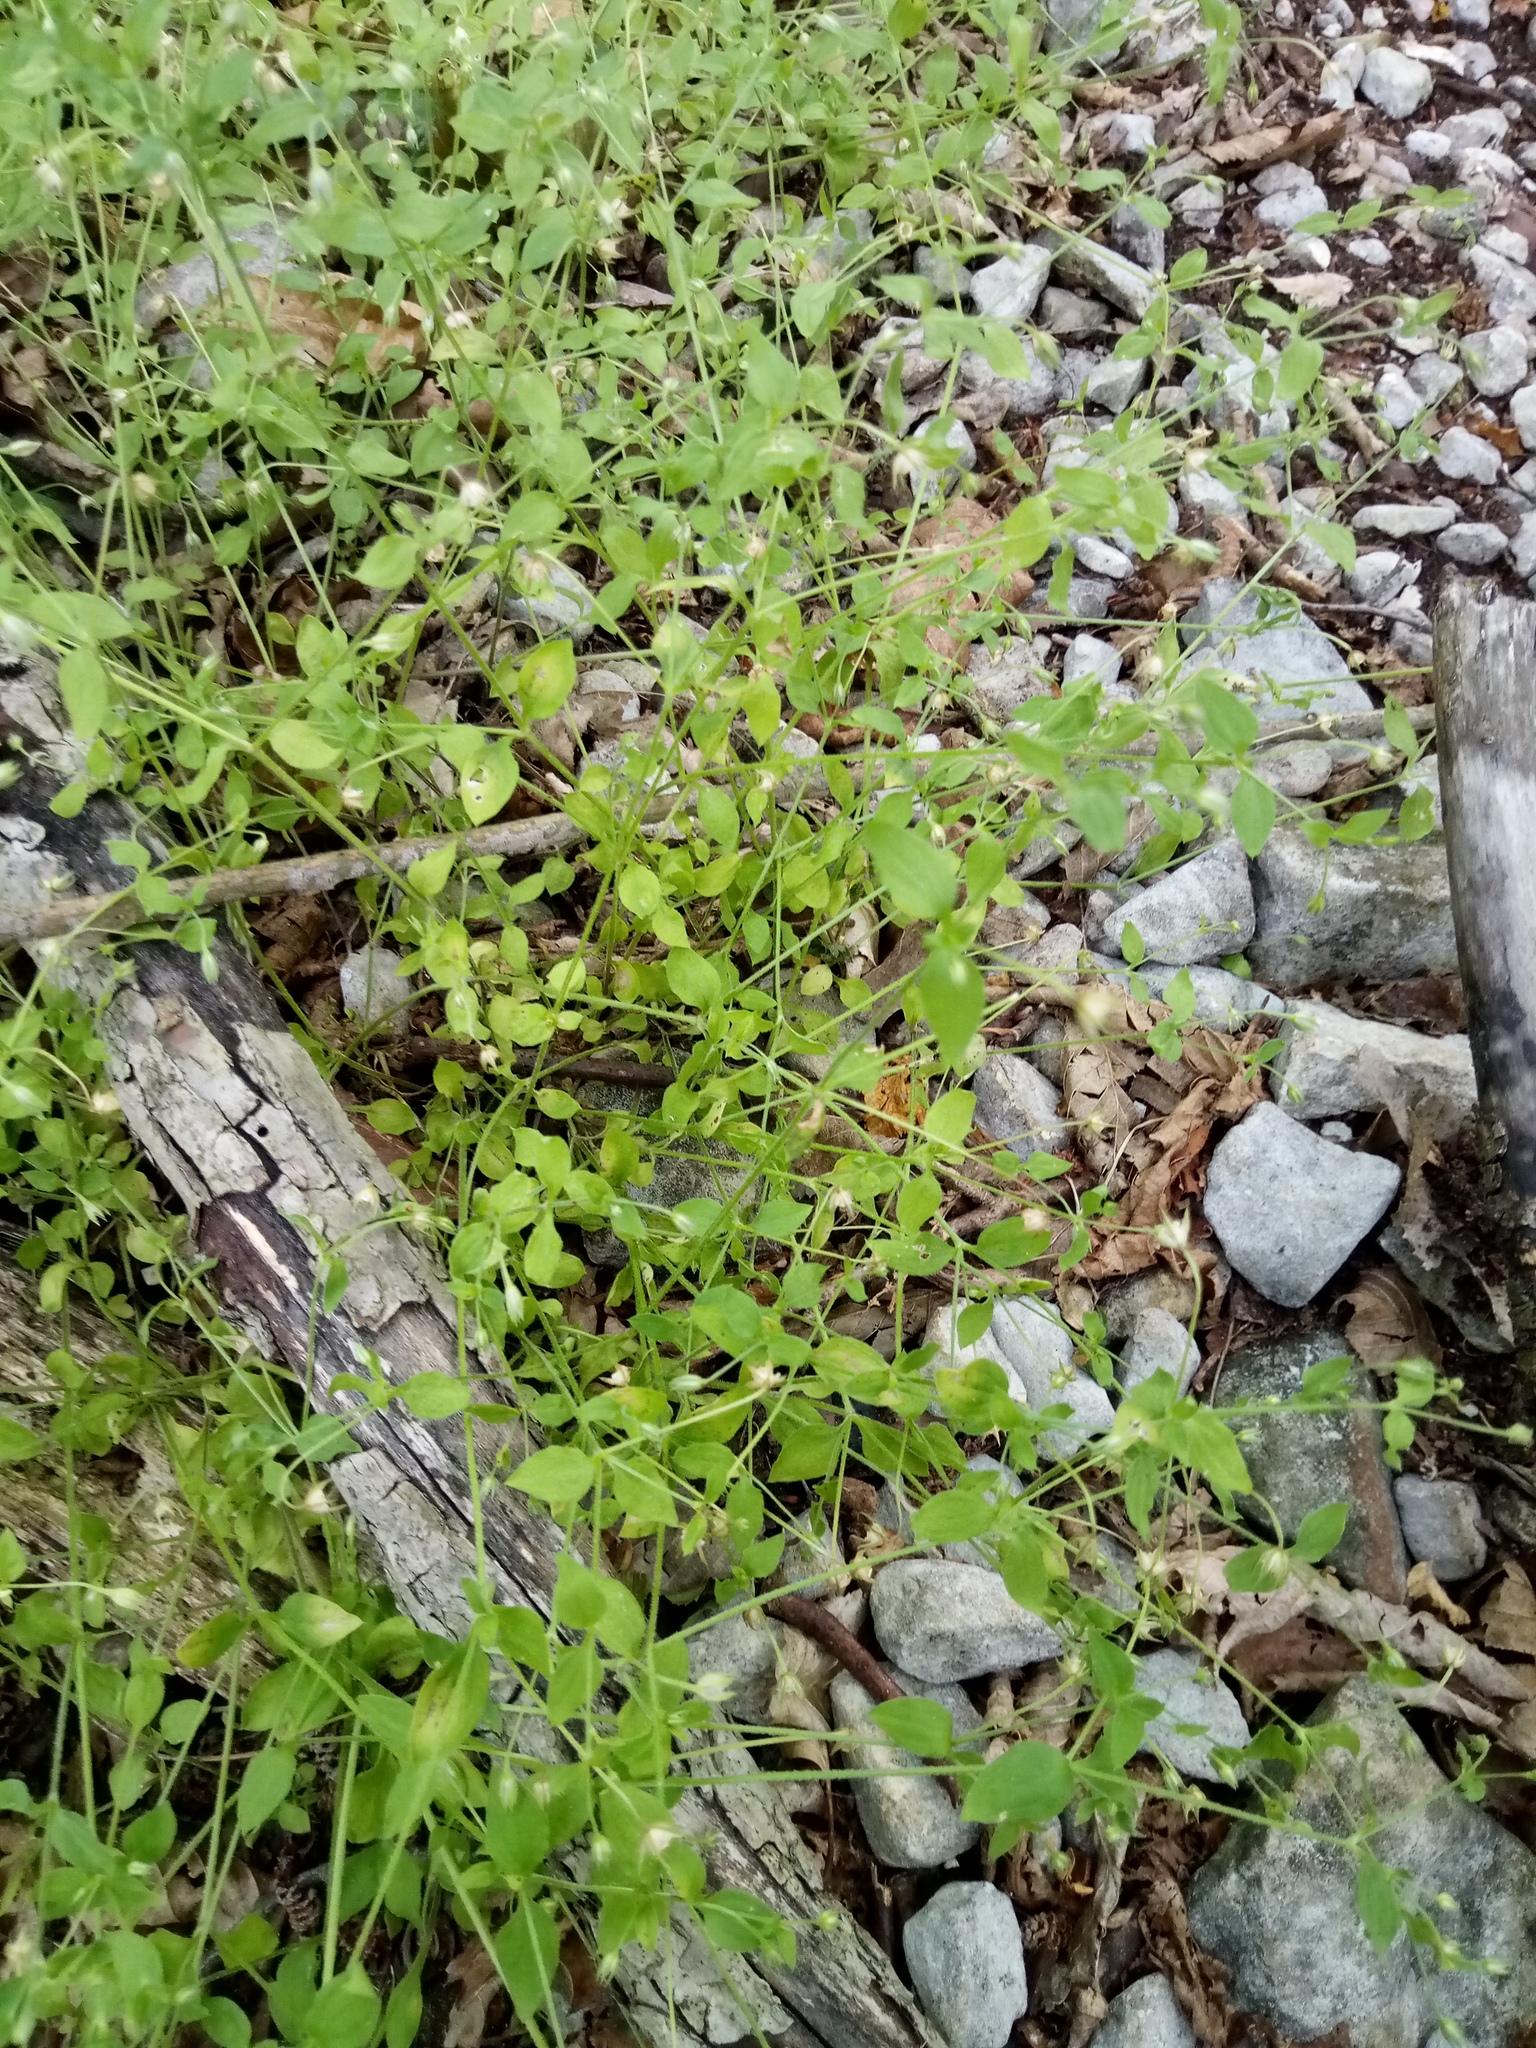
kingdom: Plantae
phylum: Tracheophyta
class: Magnoliopsida
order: Caryophyllales
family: Caryophyllaceae
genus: Moehringia
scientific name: Moehringia trinervia
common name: Three-nerved sandwort
